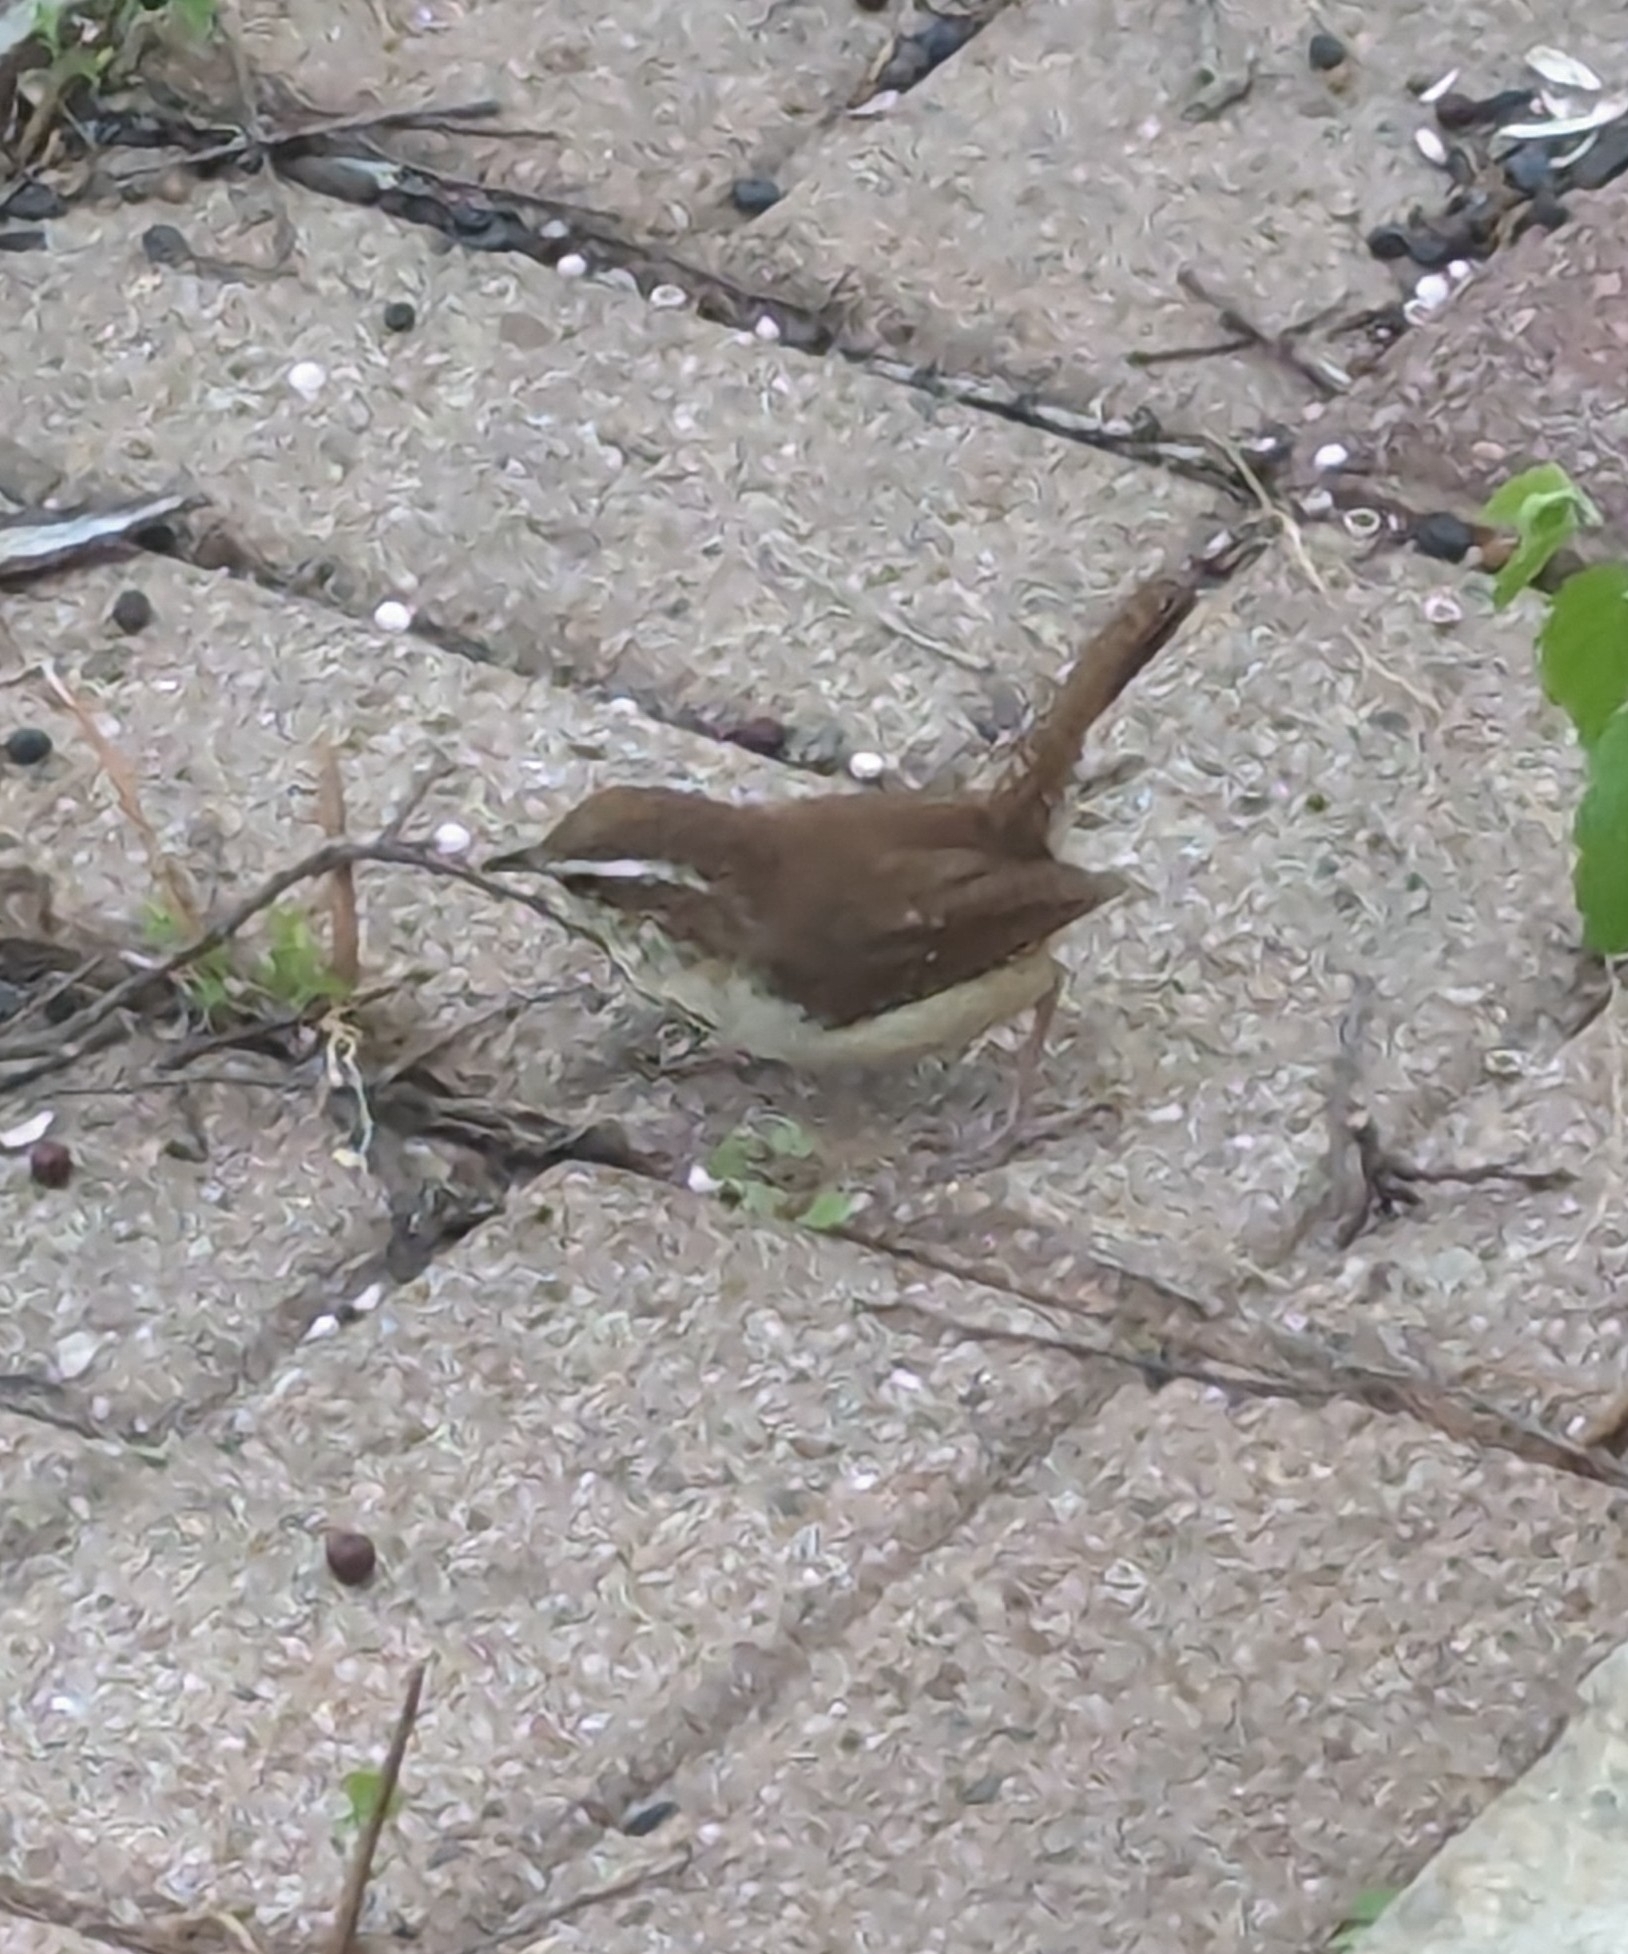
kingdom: Animalia
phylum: Chordata
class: Aves
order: Passeriformes
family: Troglodytidae
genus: Thryothorus
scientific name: Thryothorus ludovicianus
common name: Carolina wren
